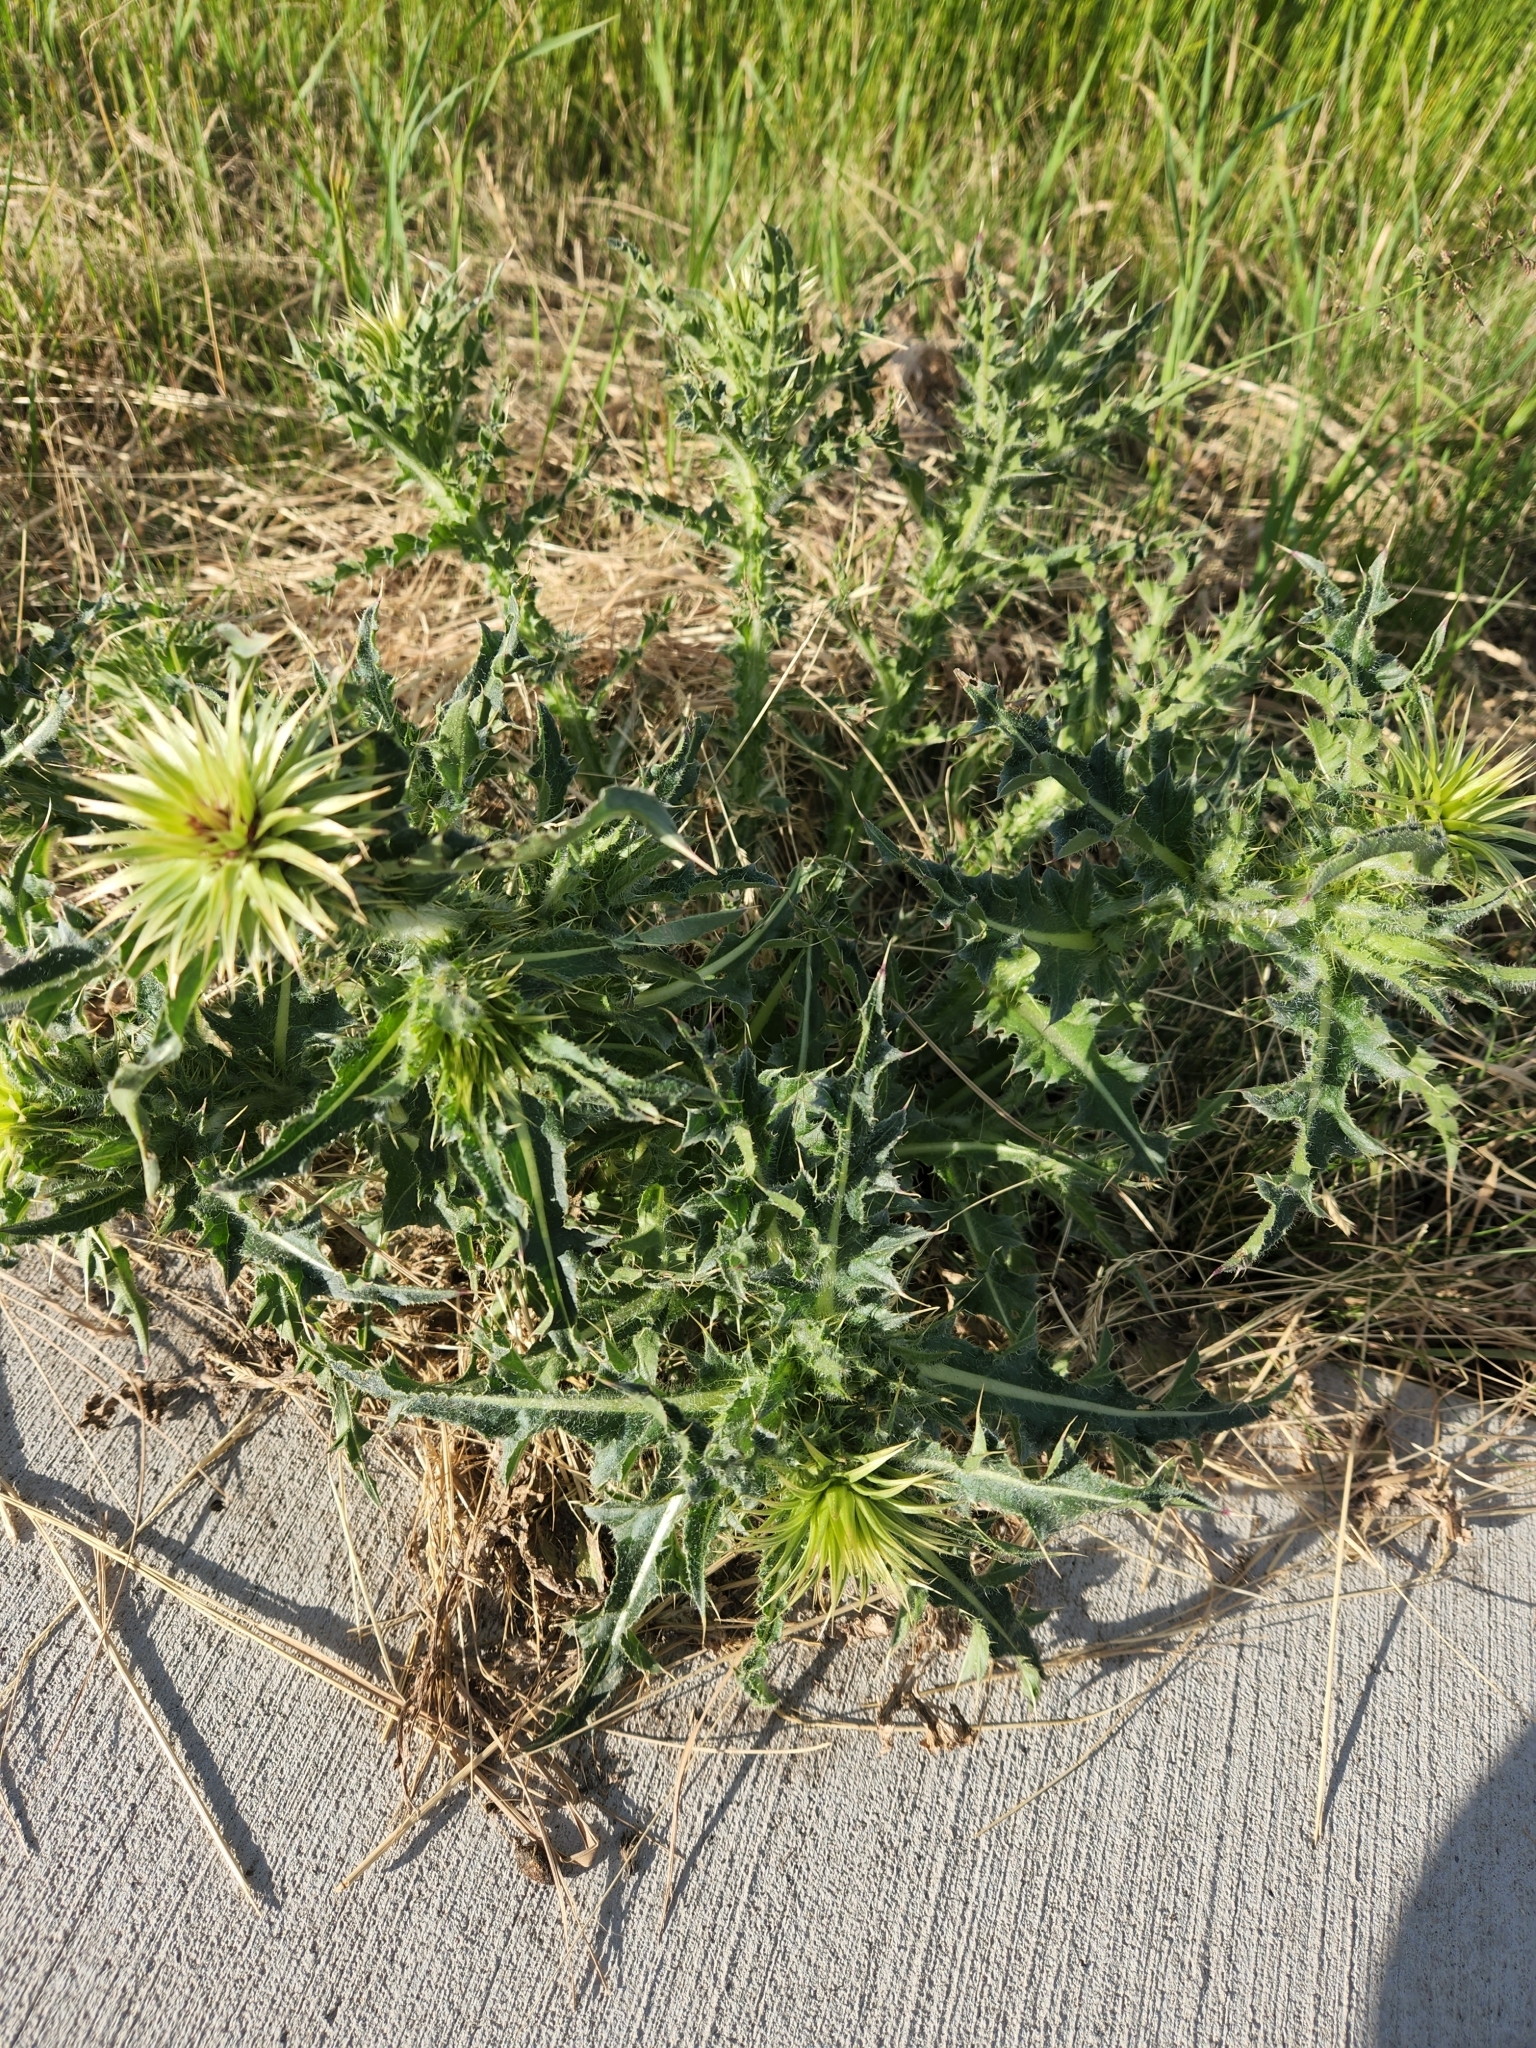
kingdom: Plantae
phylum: Tracheophyta
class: Magnoliopsida
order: Asterales
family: Asteraceae
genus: Carduus
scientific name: Carduus nutans
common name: Musk thistle
